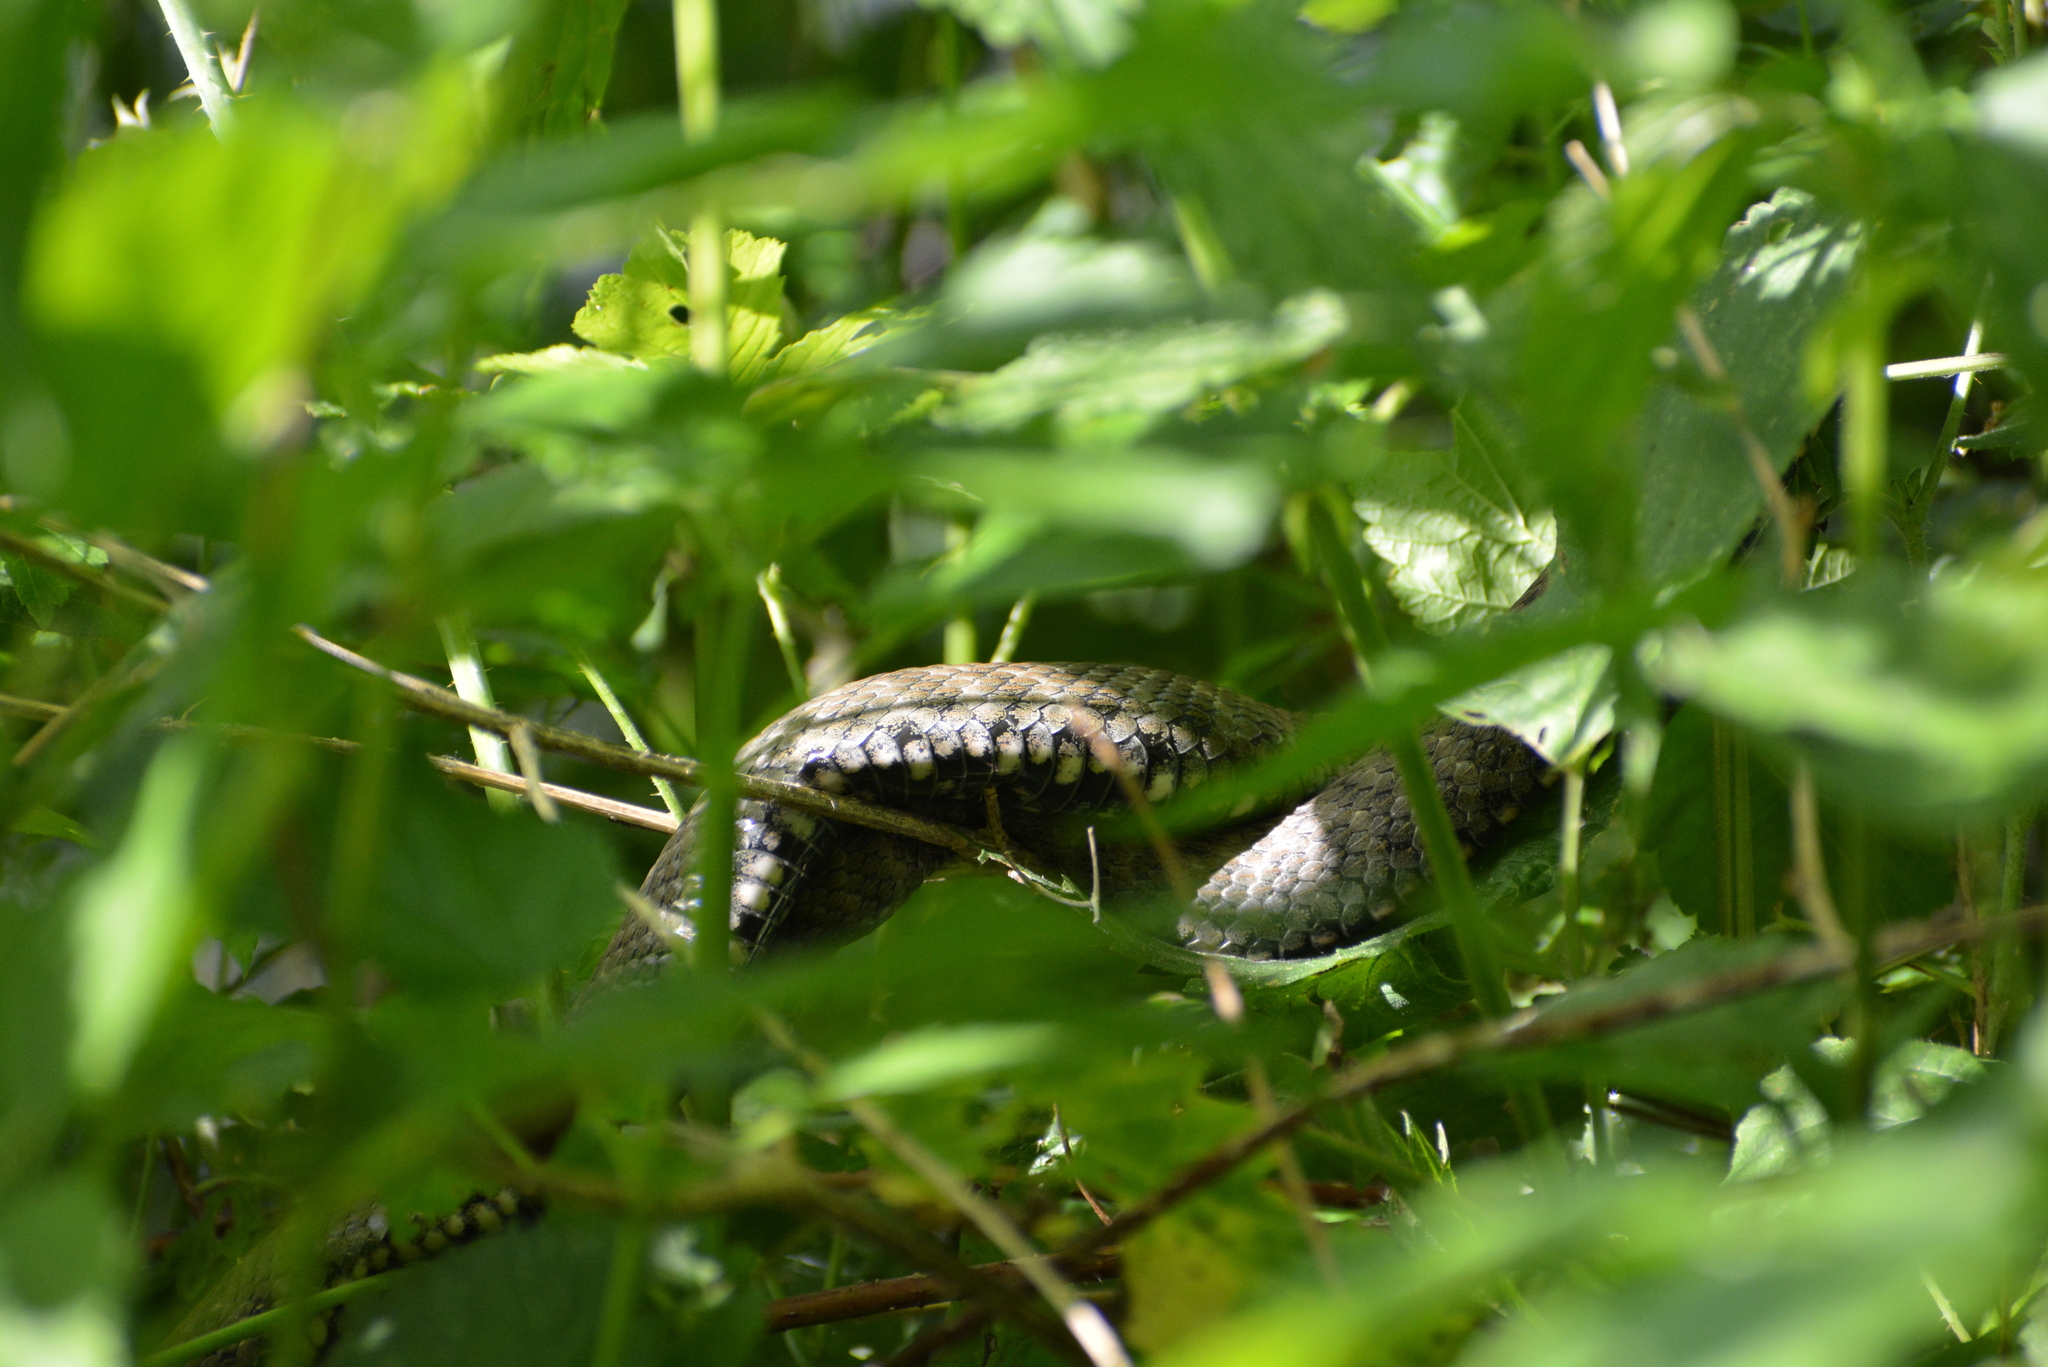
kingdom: Animalia
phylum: Chordata
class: Squamata
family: Colubridae
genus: Natrix
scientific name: Natrix tessellata
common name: Dice snake
